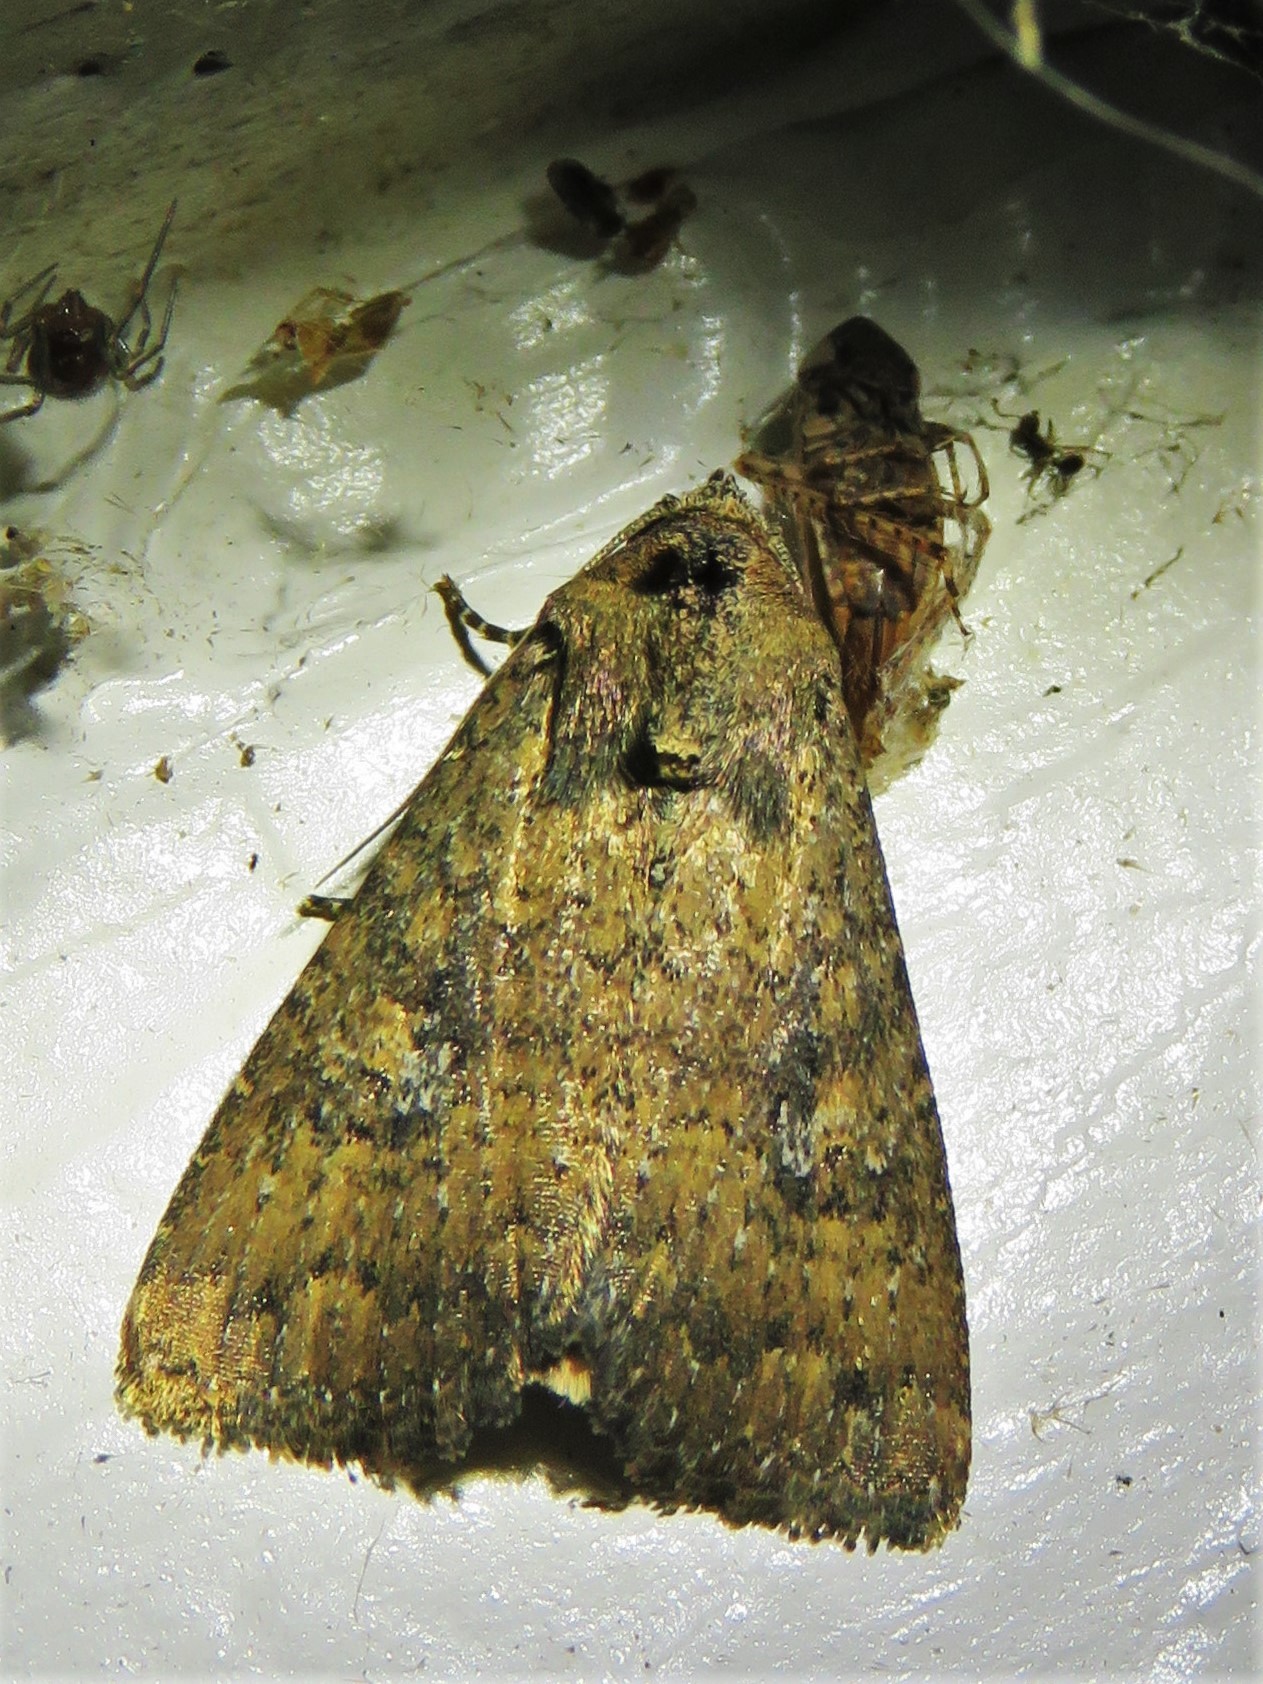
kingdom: Animalia
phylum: Arthropoda
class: Insecta
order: Lepidoptera
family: Noctuidae
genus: Condica
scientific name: Condica sutor
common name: Cobbler moth
